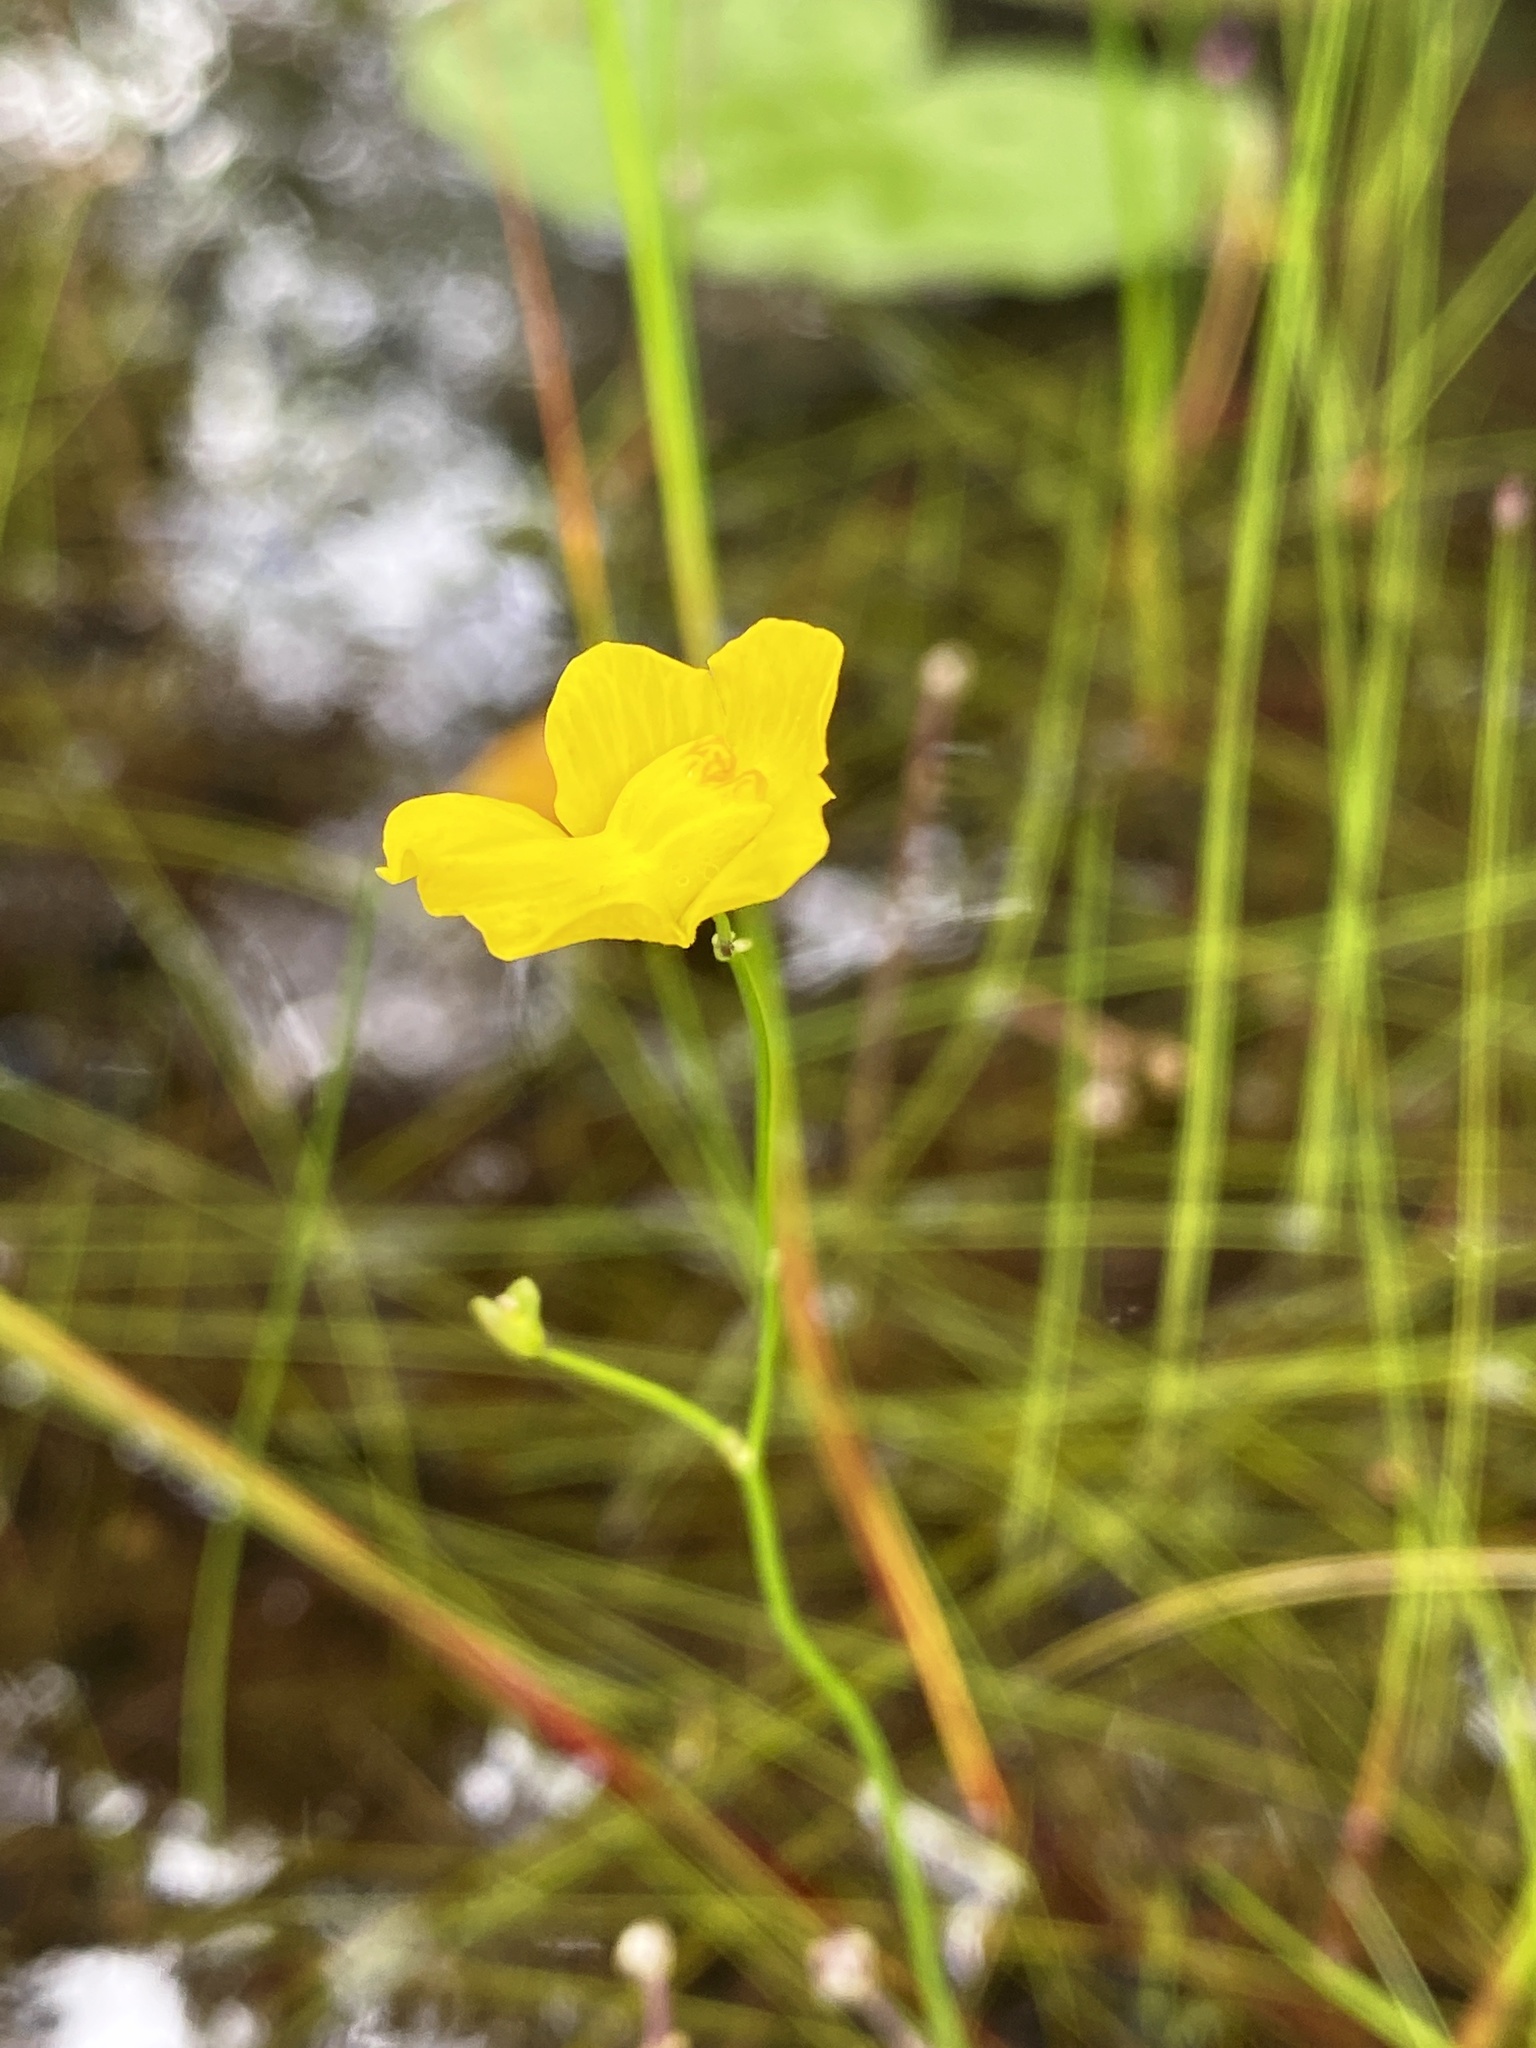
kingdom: Plantae
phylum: Tracheophyta
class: Magnoliopsida
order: Lamiales
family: Lentibulariaceae
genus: Utricularia
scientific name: Utricularia striata
